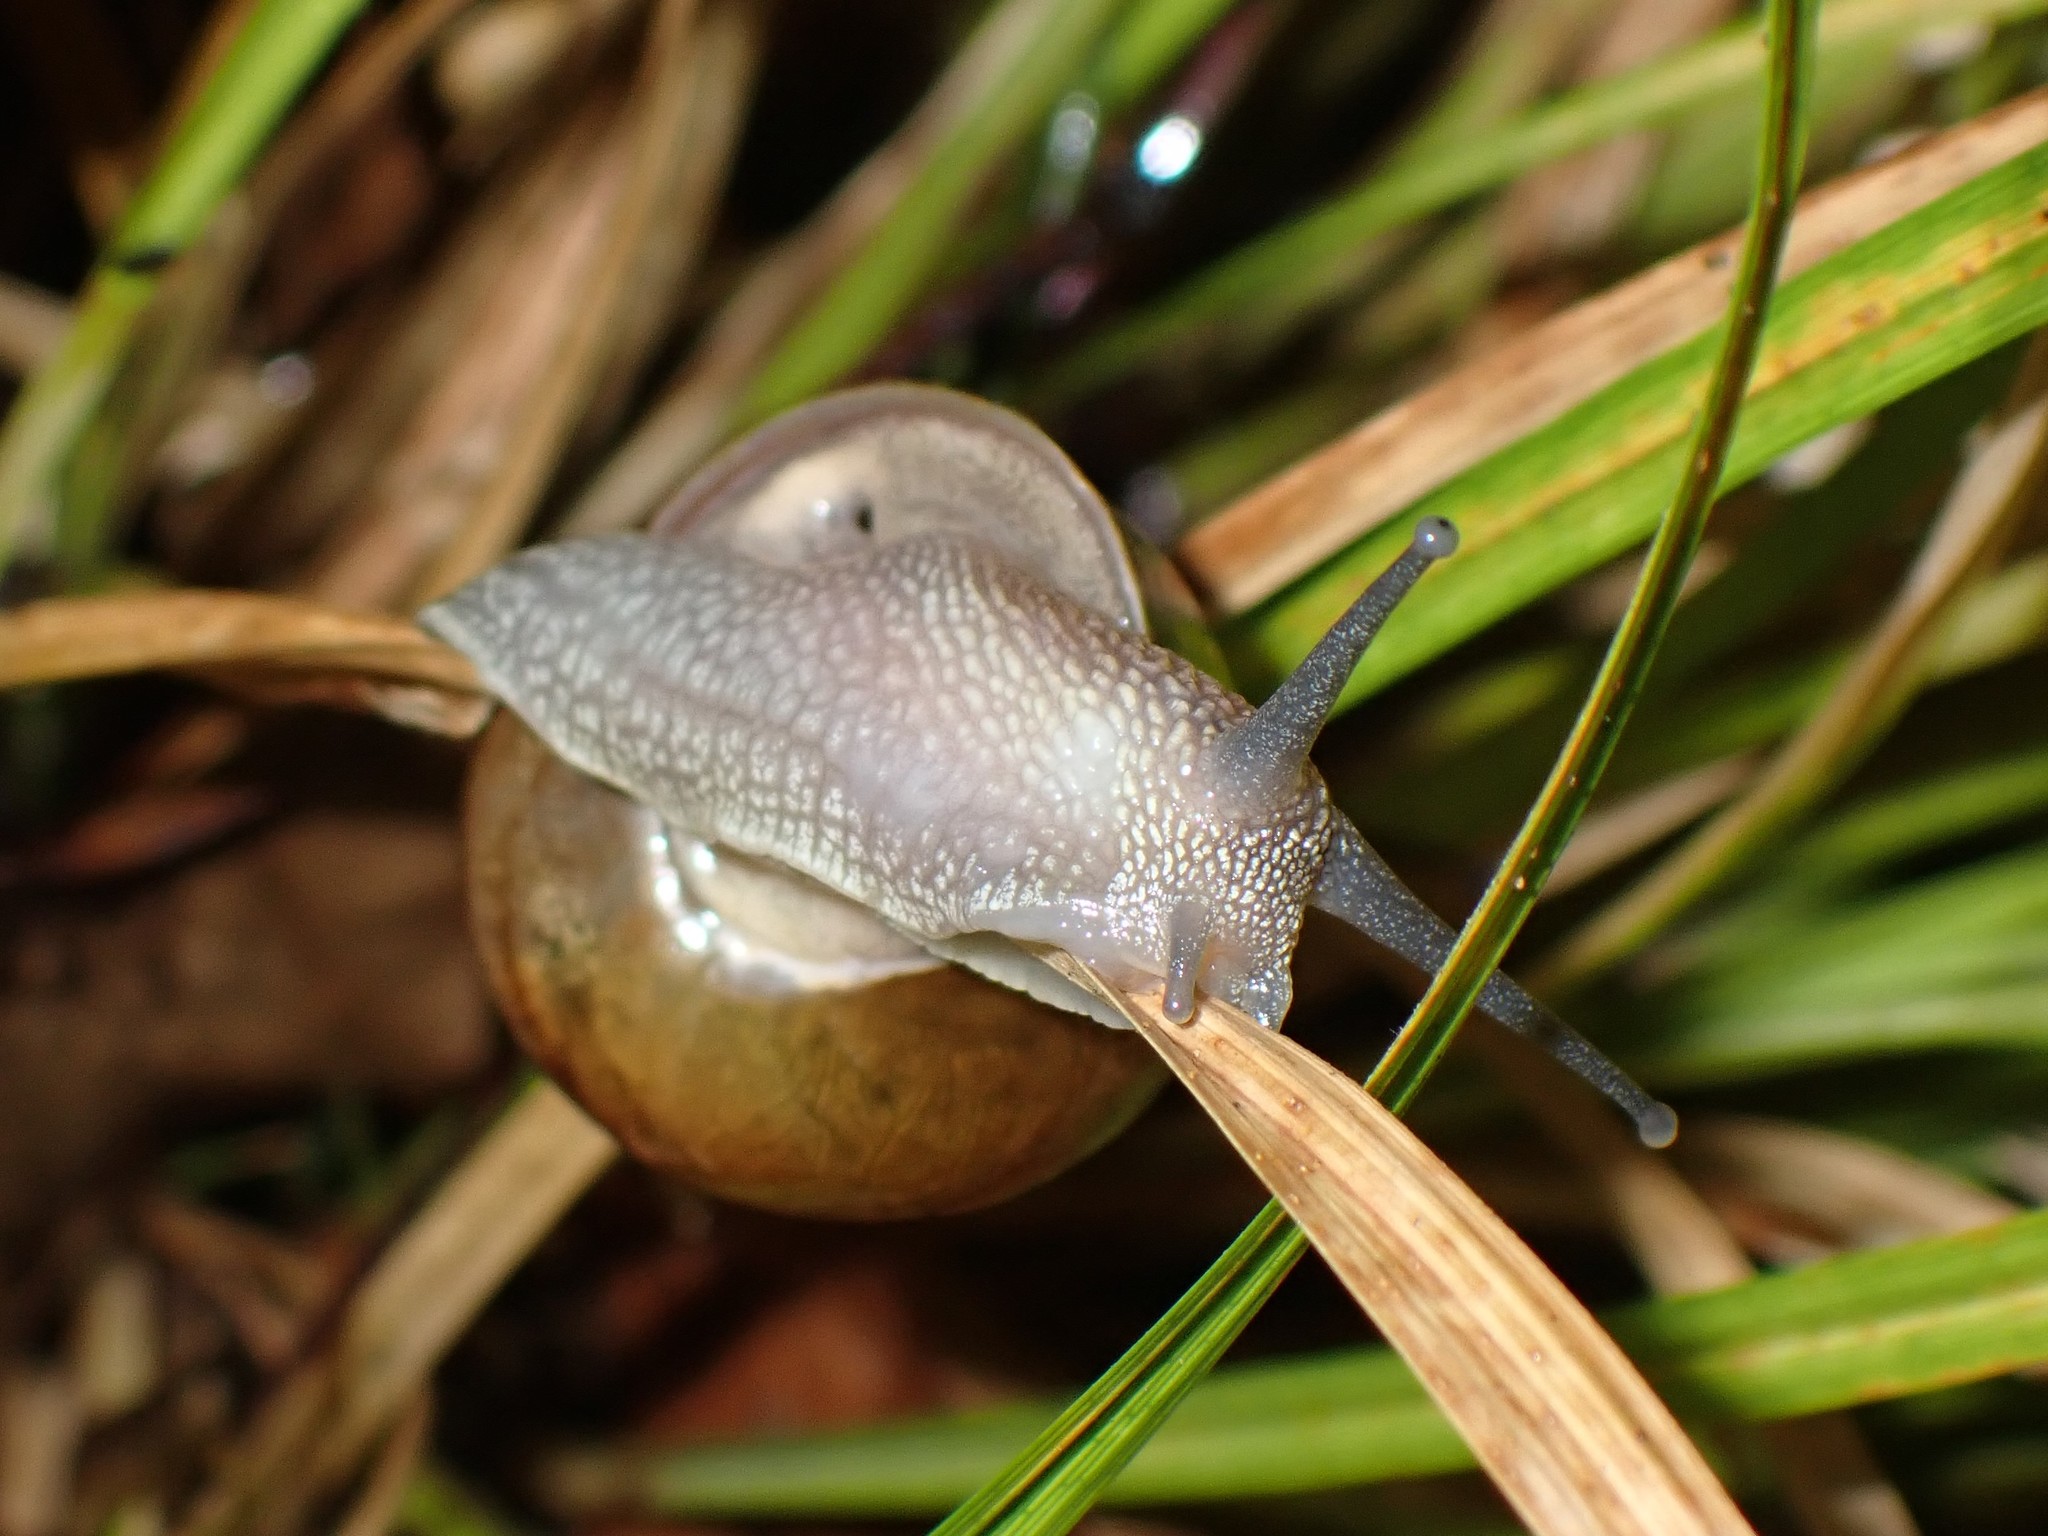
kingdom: Animalia
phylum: Mollusca
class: Gastropoda
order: Stylommatophora
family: Helicidae
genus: Cornu
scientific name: Cornu aspersum
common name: Brown garden snail
